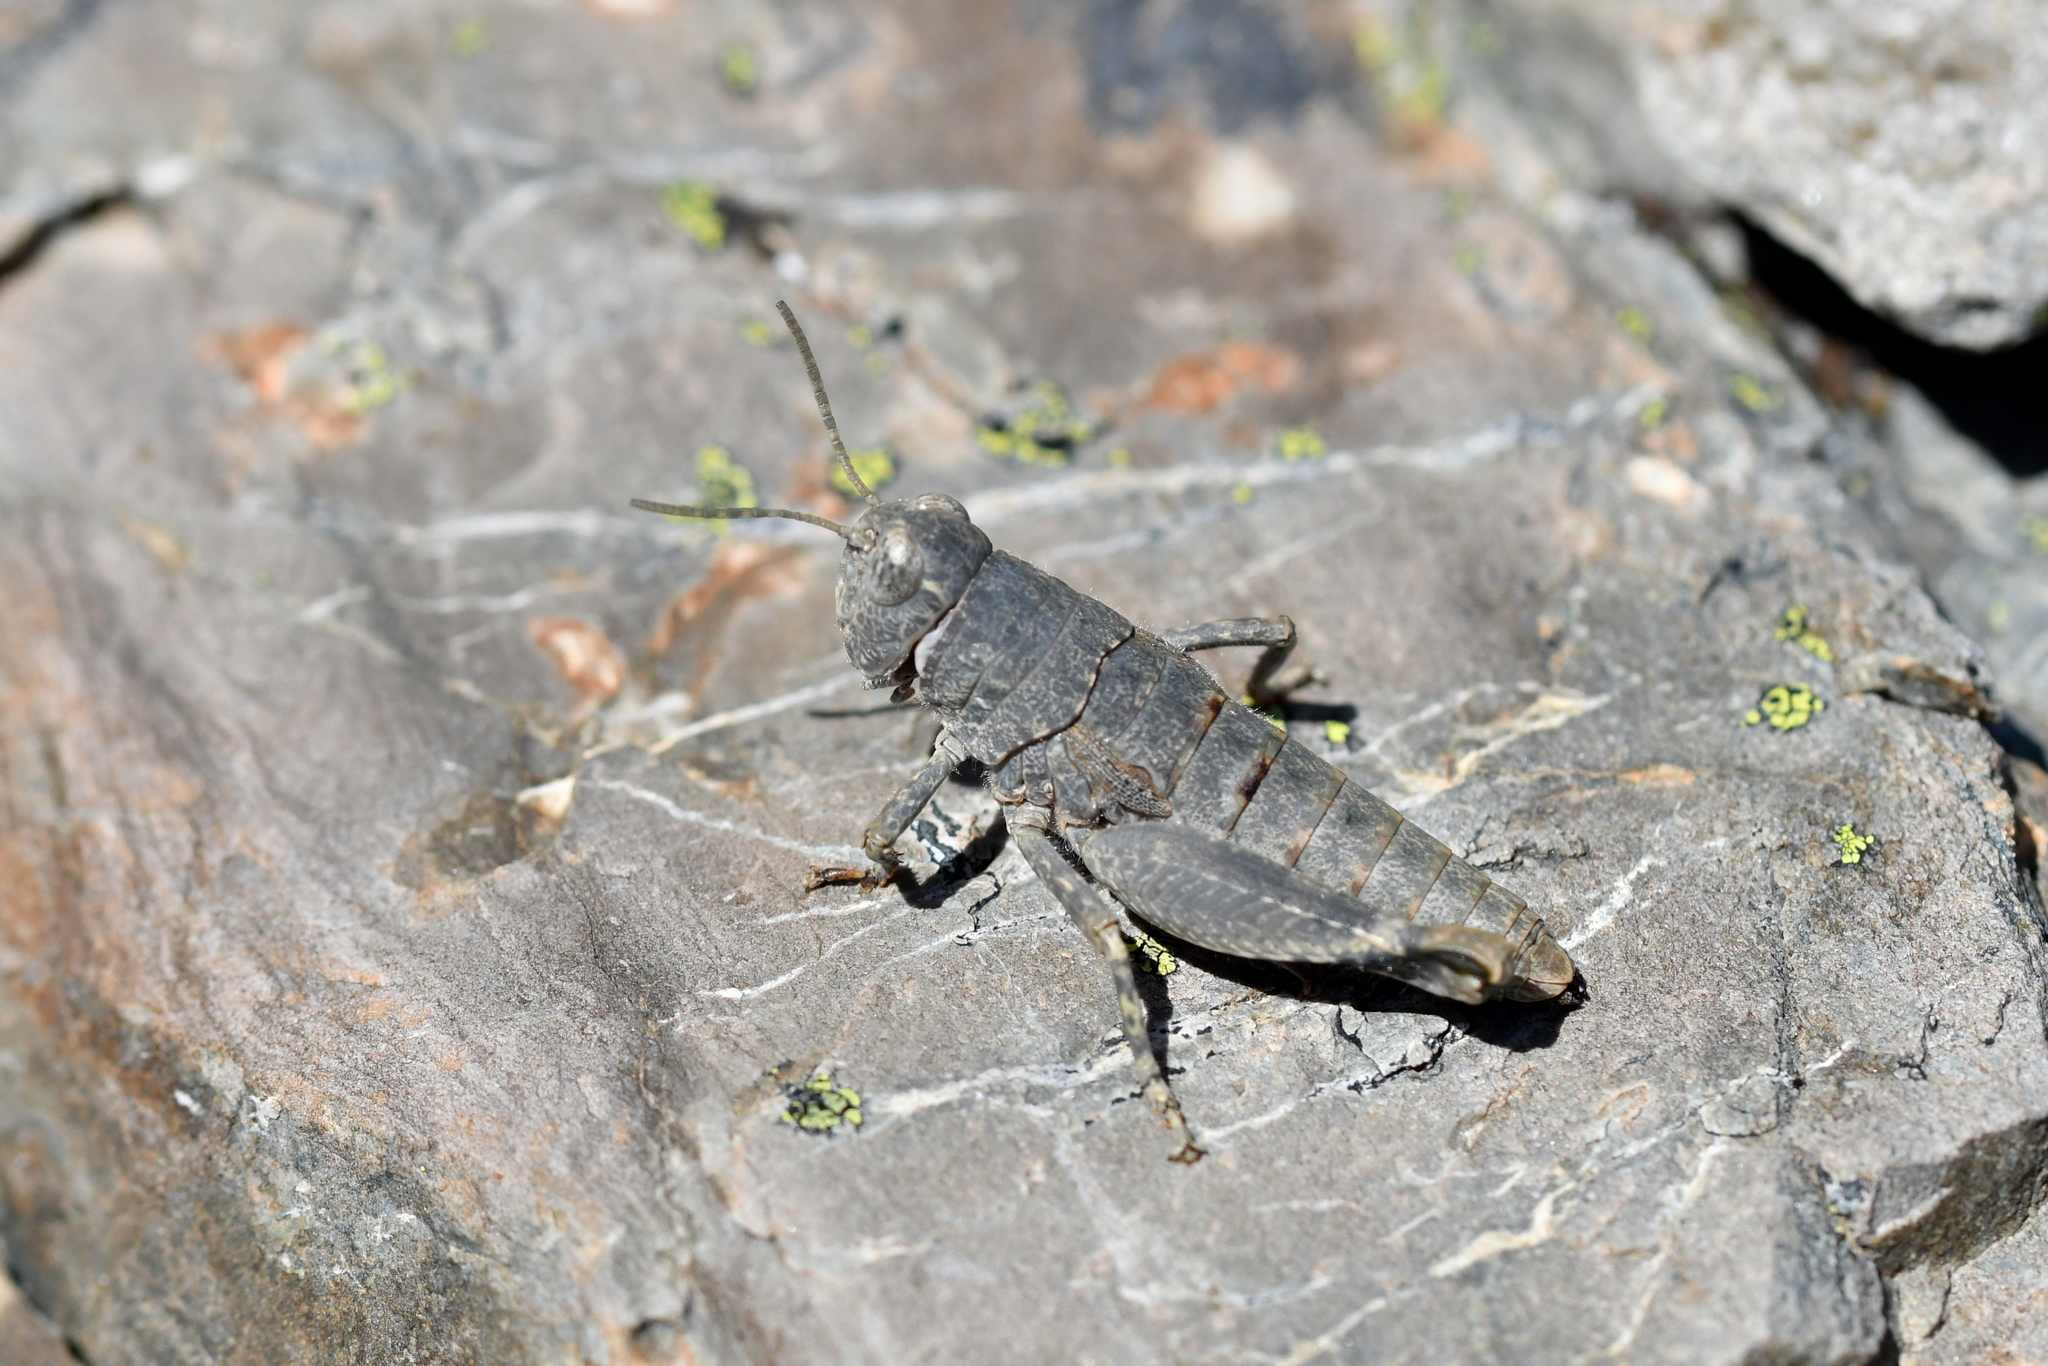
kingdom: Animalia
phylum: Arthropoda
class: Insecta
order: Orthoptera
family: Acrididae
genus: Sigaus
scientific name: Sigaus
